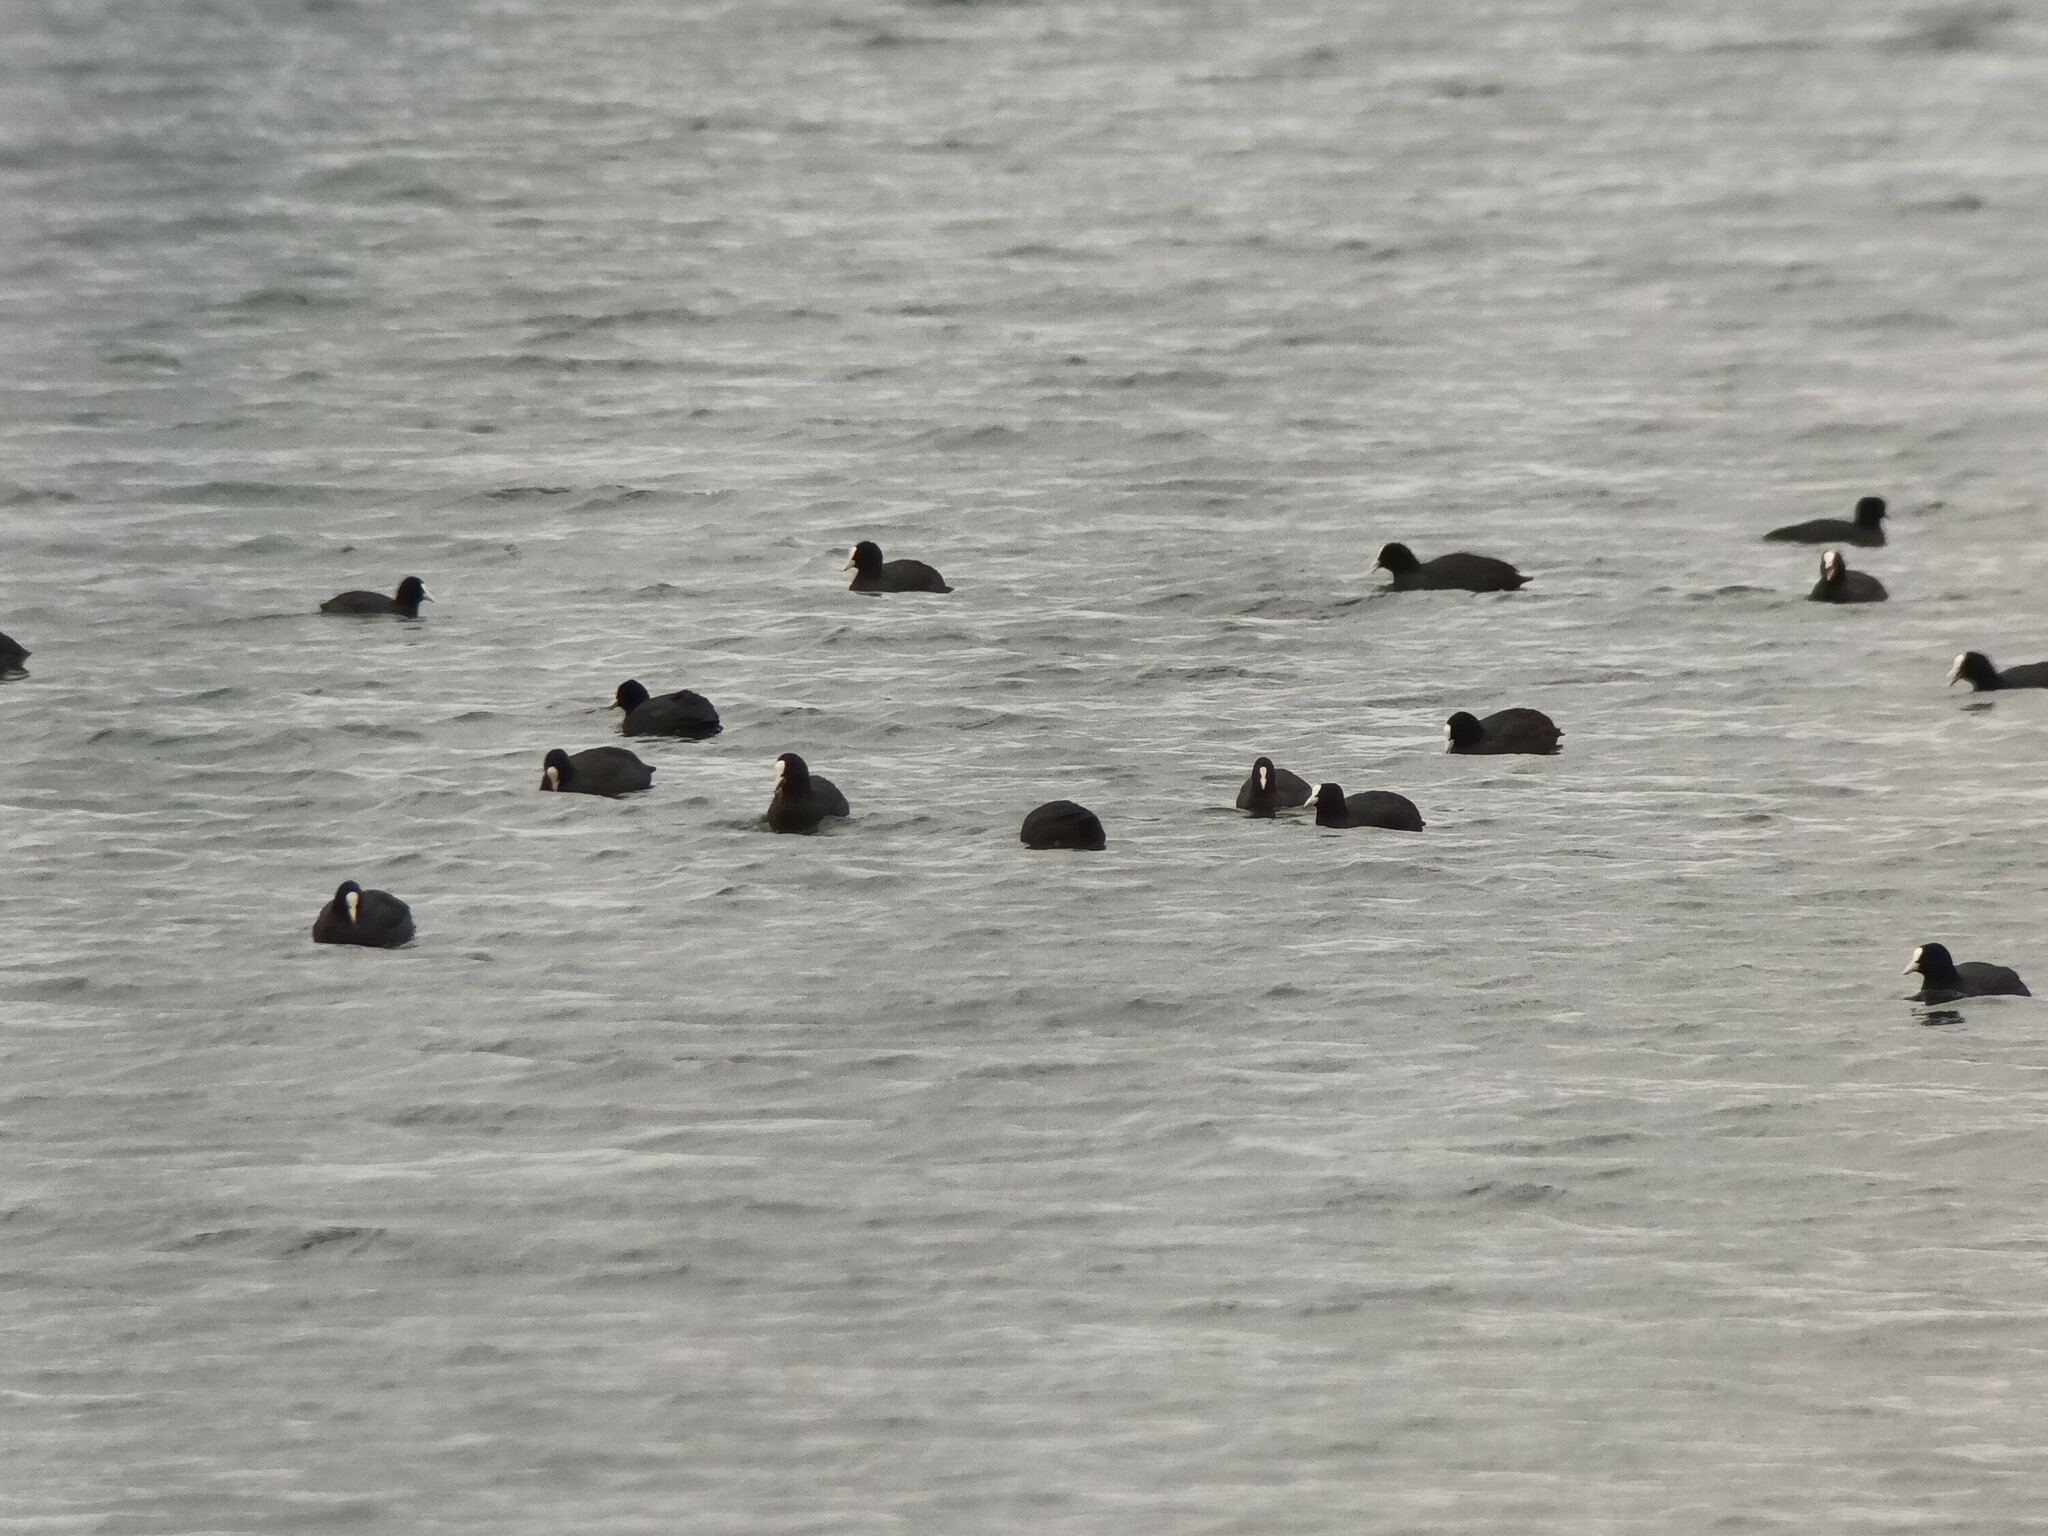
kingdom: Animalia
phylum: Chordata
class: Aves
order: Gruiformes
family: Rallidae
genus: Fulica
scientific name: Fulica atra
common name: Eurasian coot
